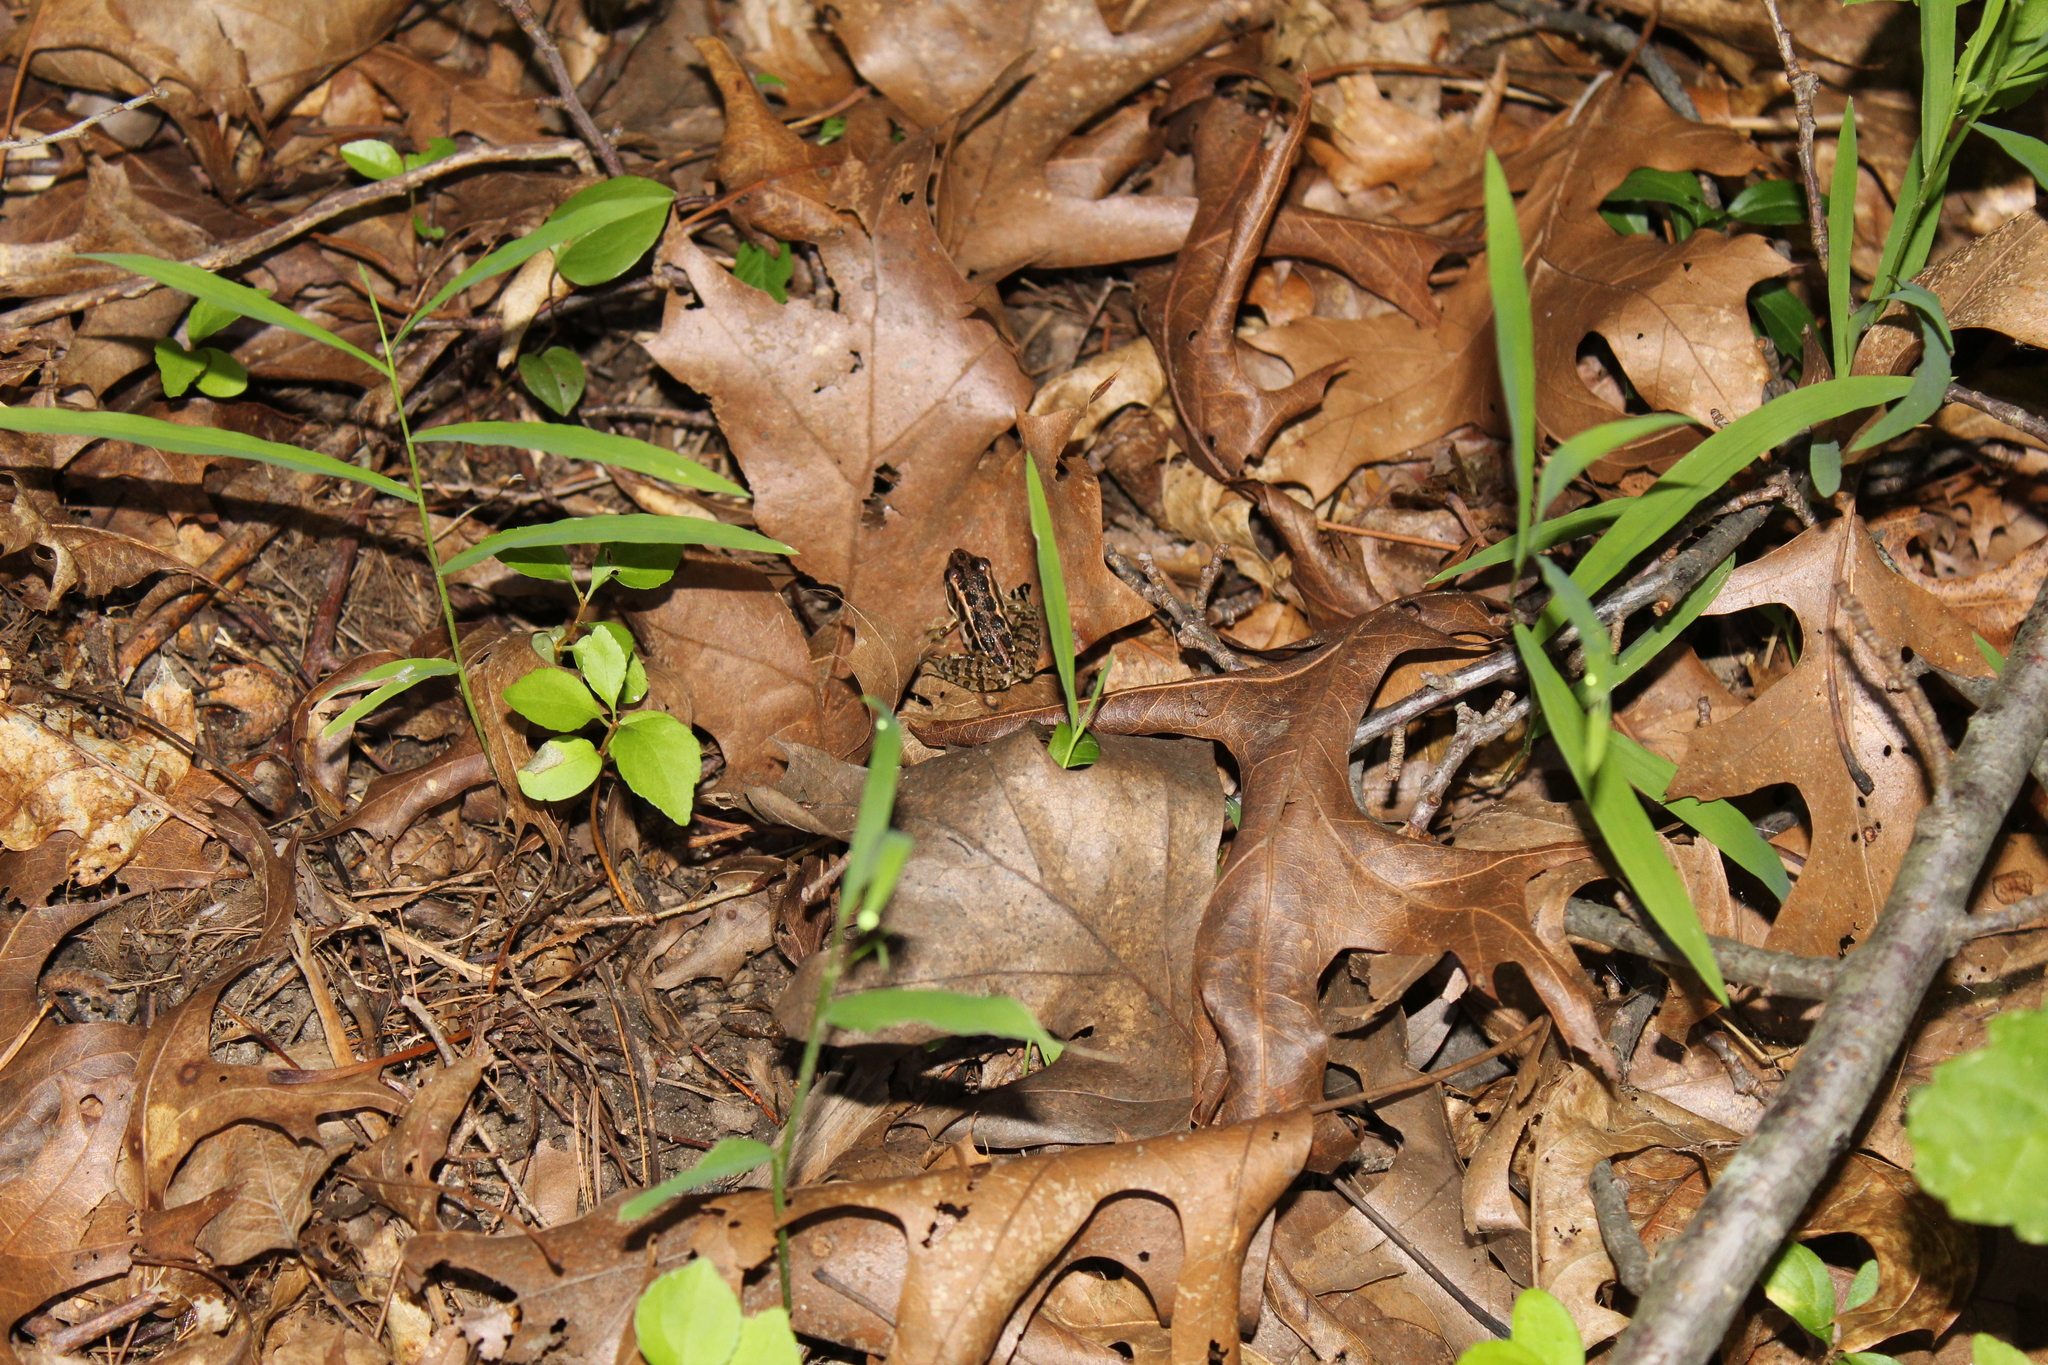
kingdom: Animalia
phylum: Chordata
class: Amphibia
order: Anura
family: Ranidae
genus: Lithobates
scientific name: Lithobates palustris
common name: Pickerel frog
